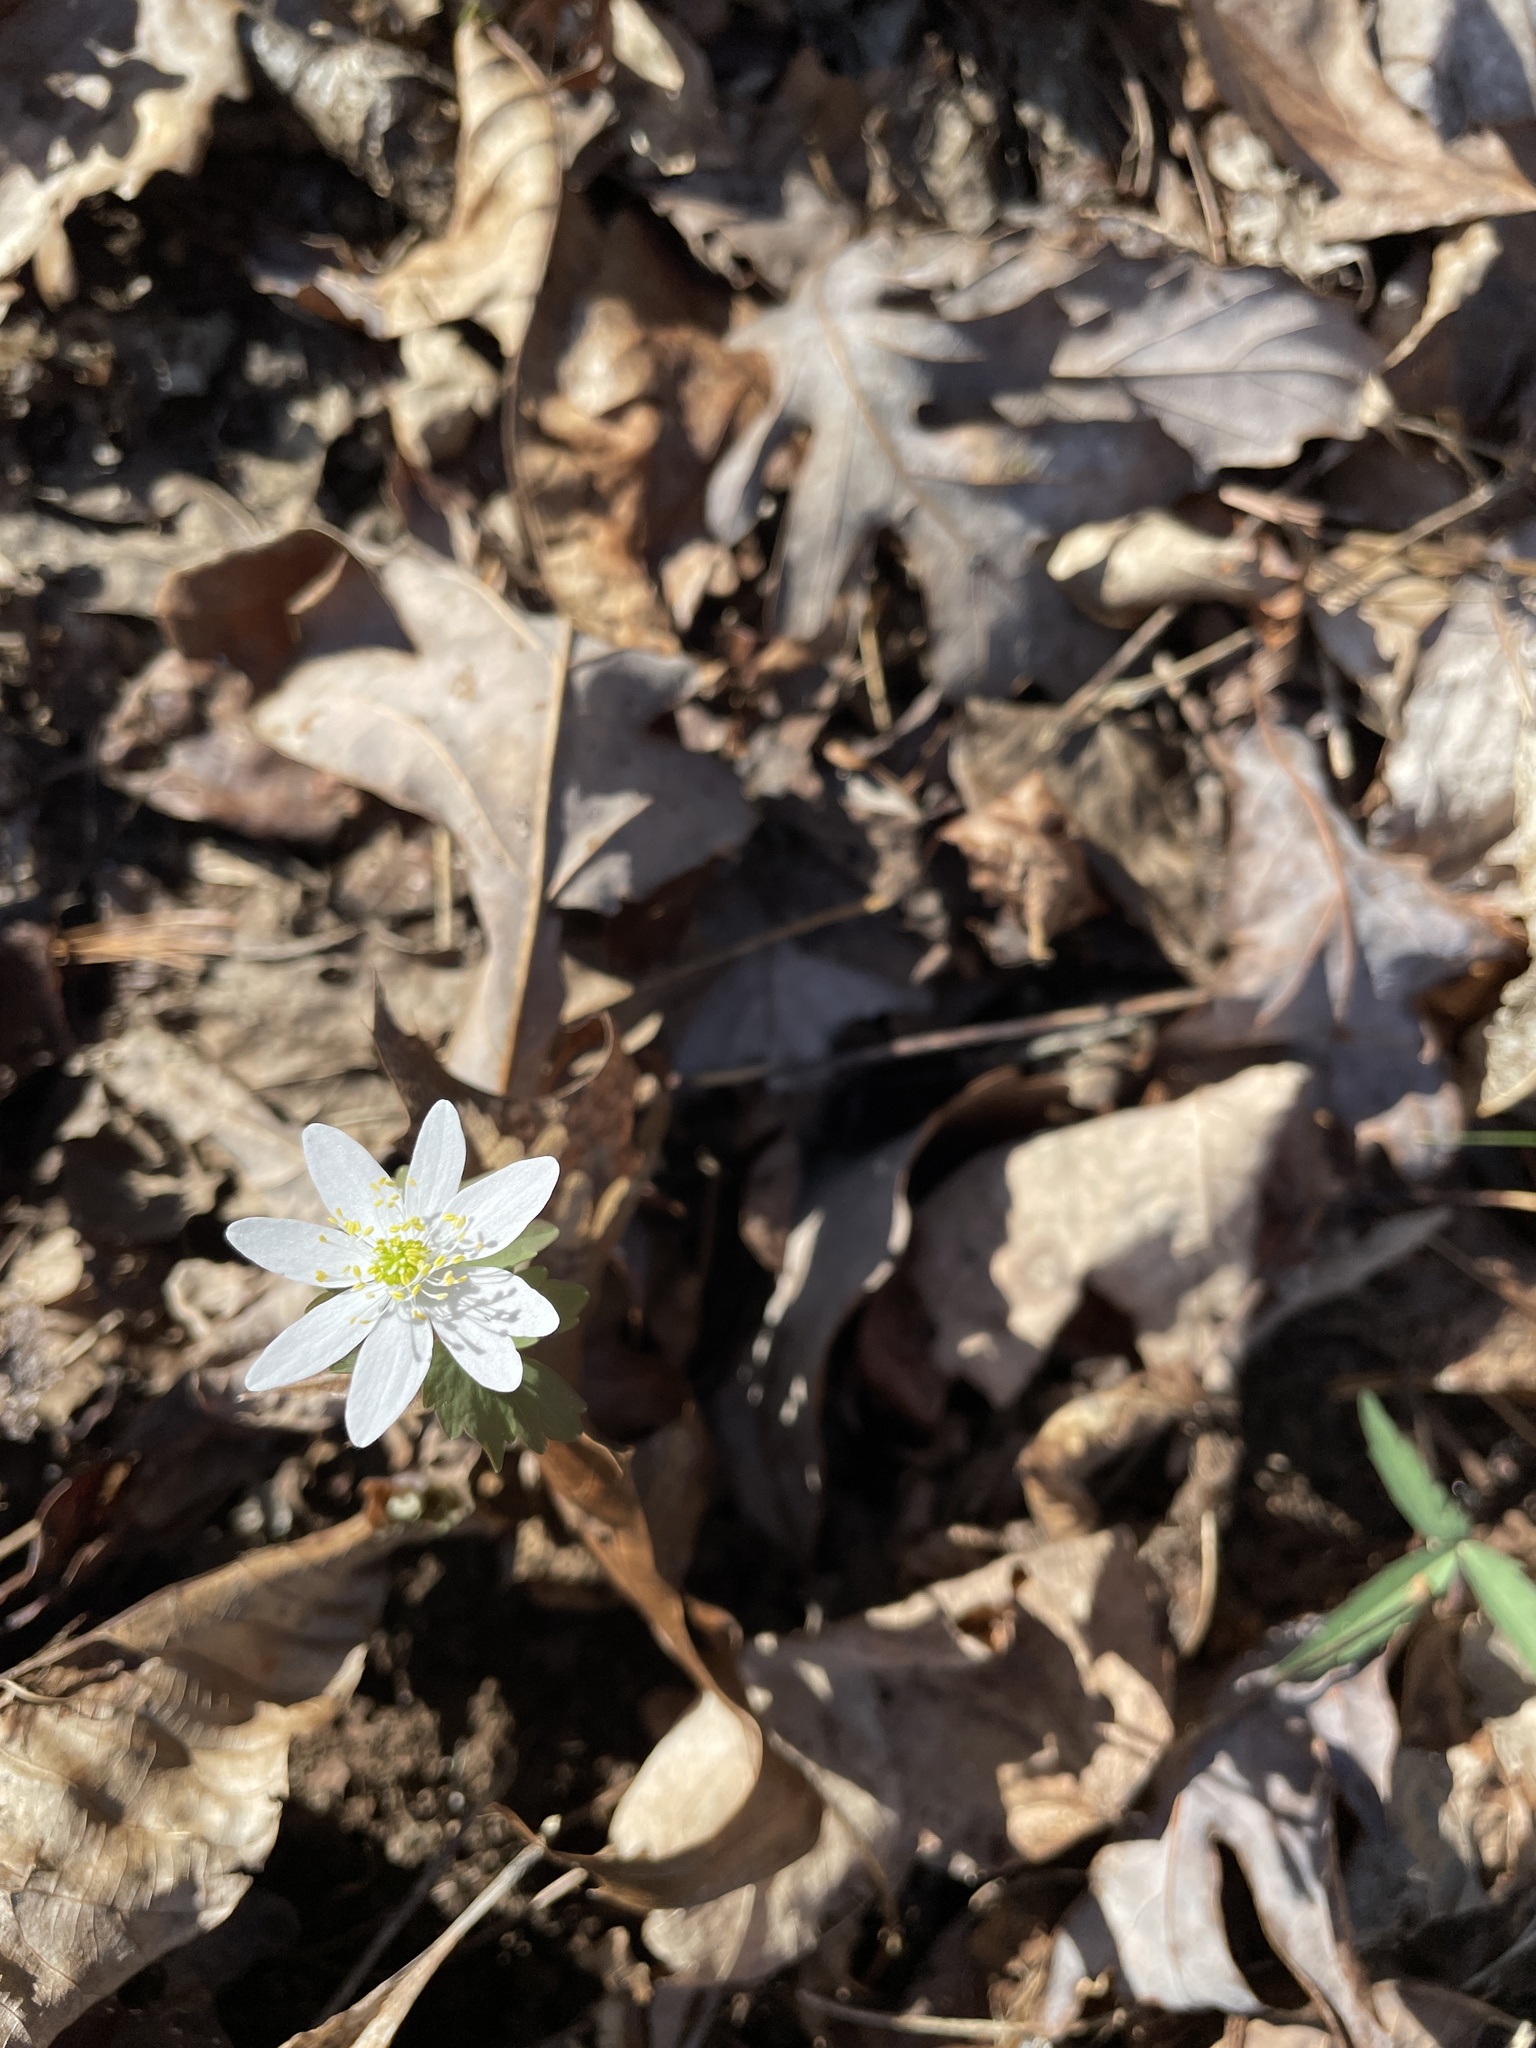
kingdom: Plantae
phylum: Tracheophyta
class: Magnoliopsida
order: Ranunculales
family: Ranunculaceae
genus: Thalictrum
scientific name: Thalictrum thalictroides
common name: Rue-anemone
